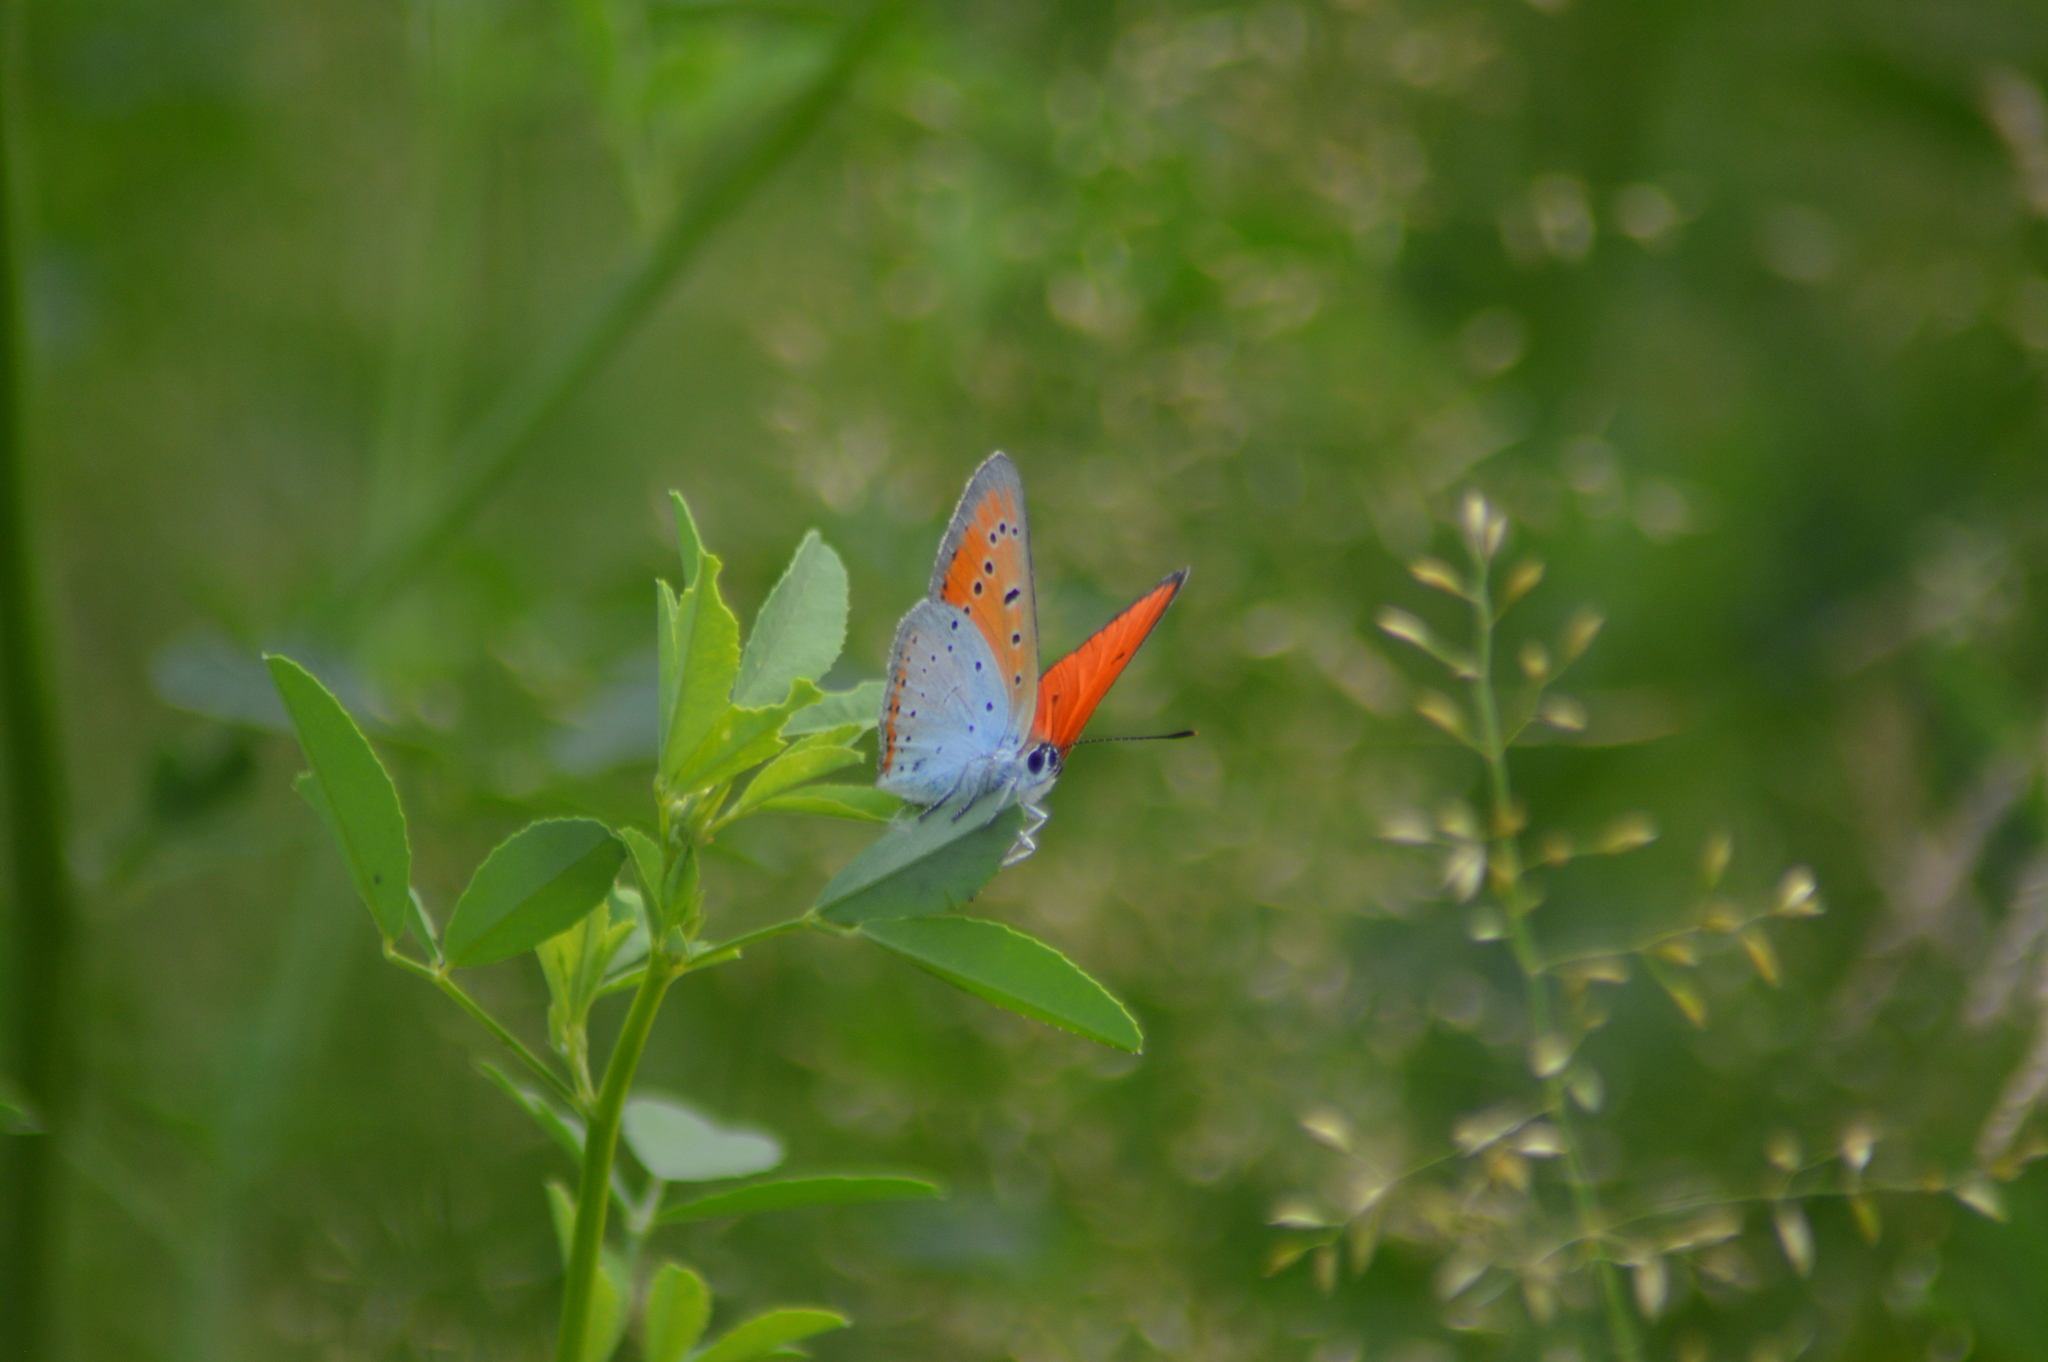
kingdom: Animalia
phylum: Arthropoda
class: Insecta
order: Lepidoptera
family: Lycaenidae
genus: Lycaena
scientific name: Lycaena dispar
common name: Large copper
